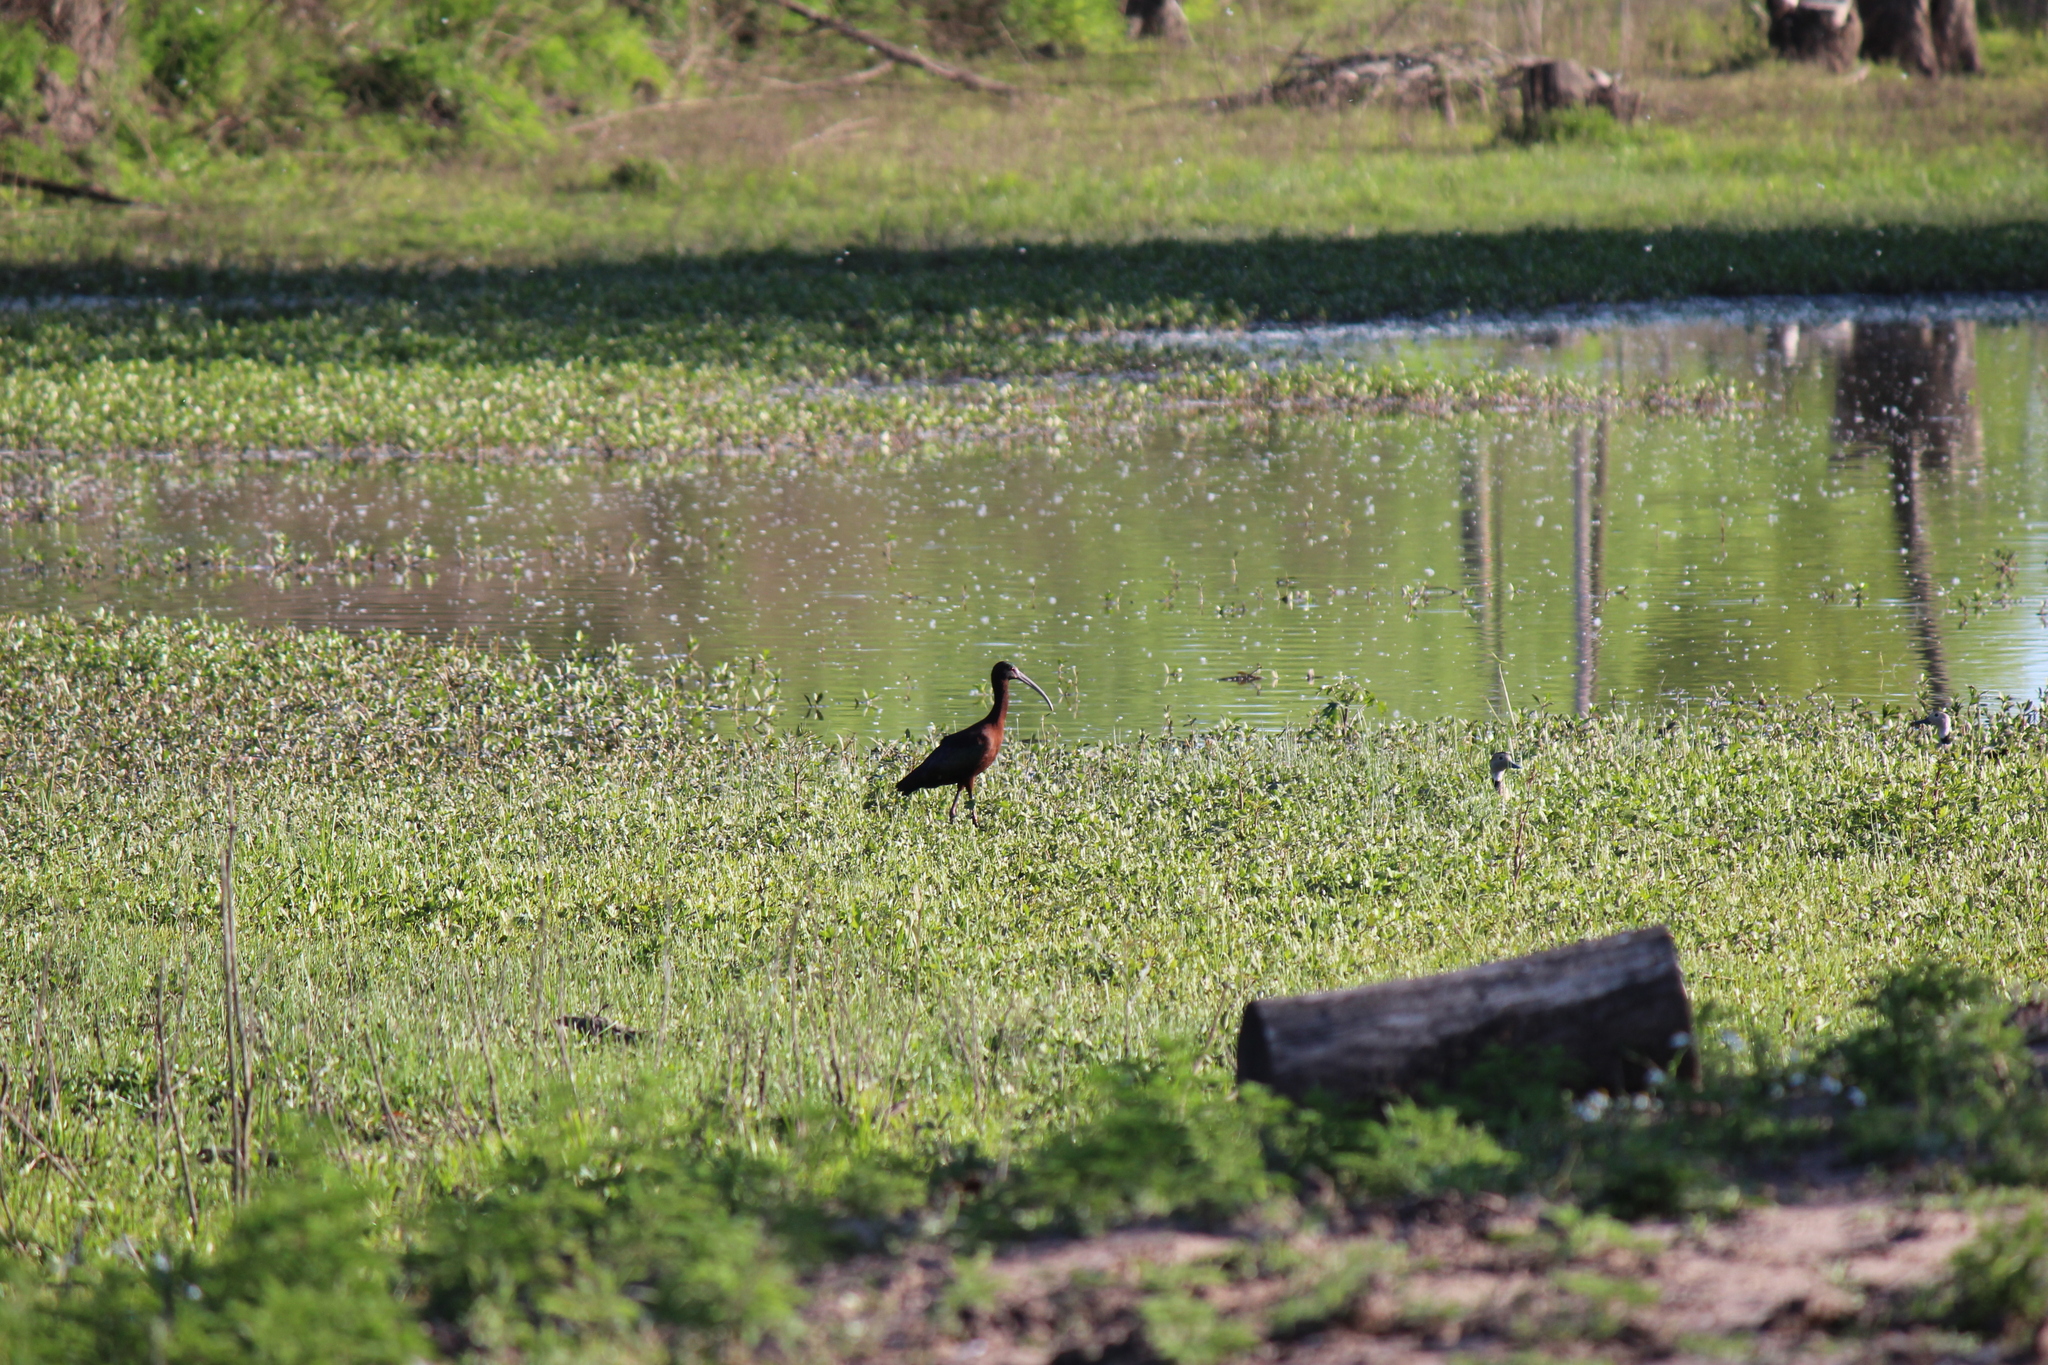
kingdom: Animalia
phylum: Chordata
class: Aves
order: Pelecaniformes
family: Threskiornithidae
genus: Plegadis
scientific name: Plegadis chihi
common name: White-faced ibis
